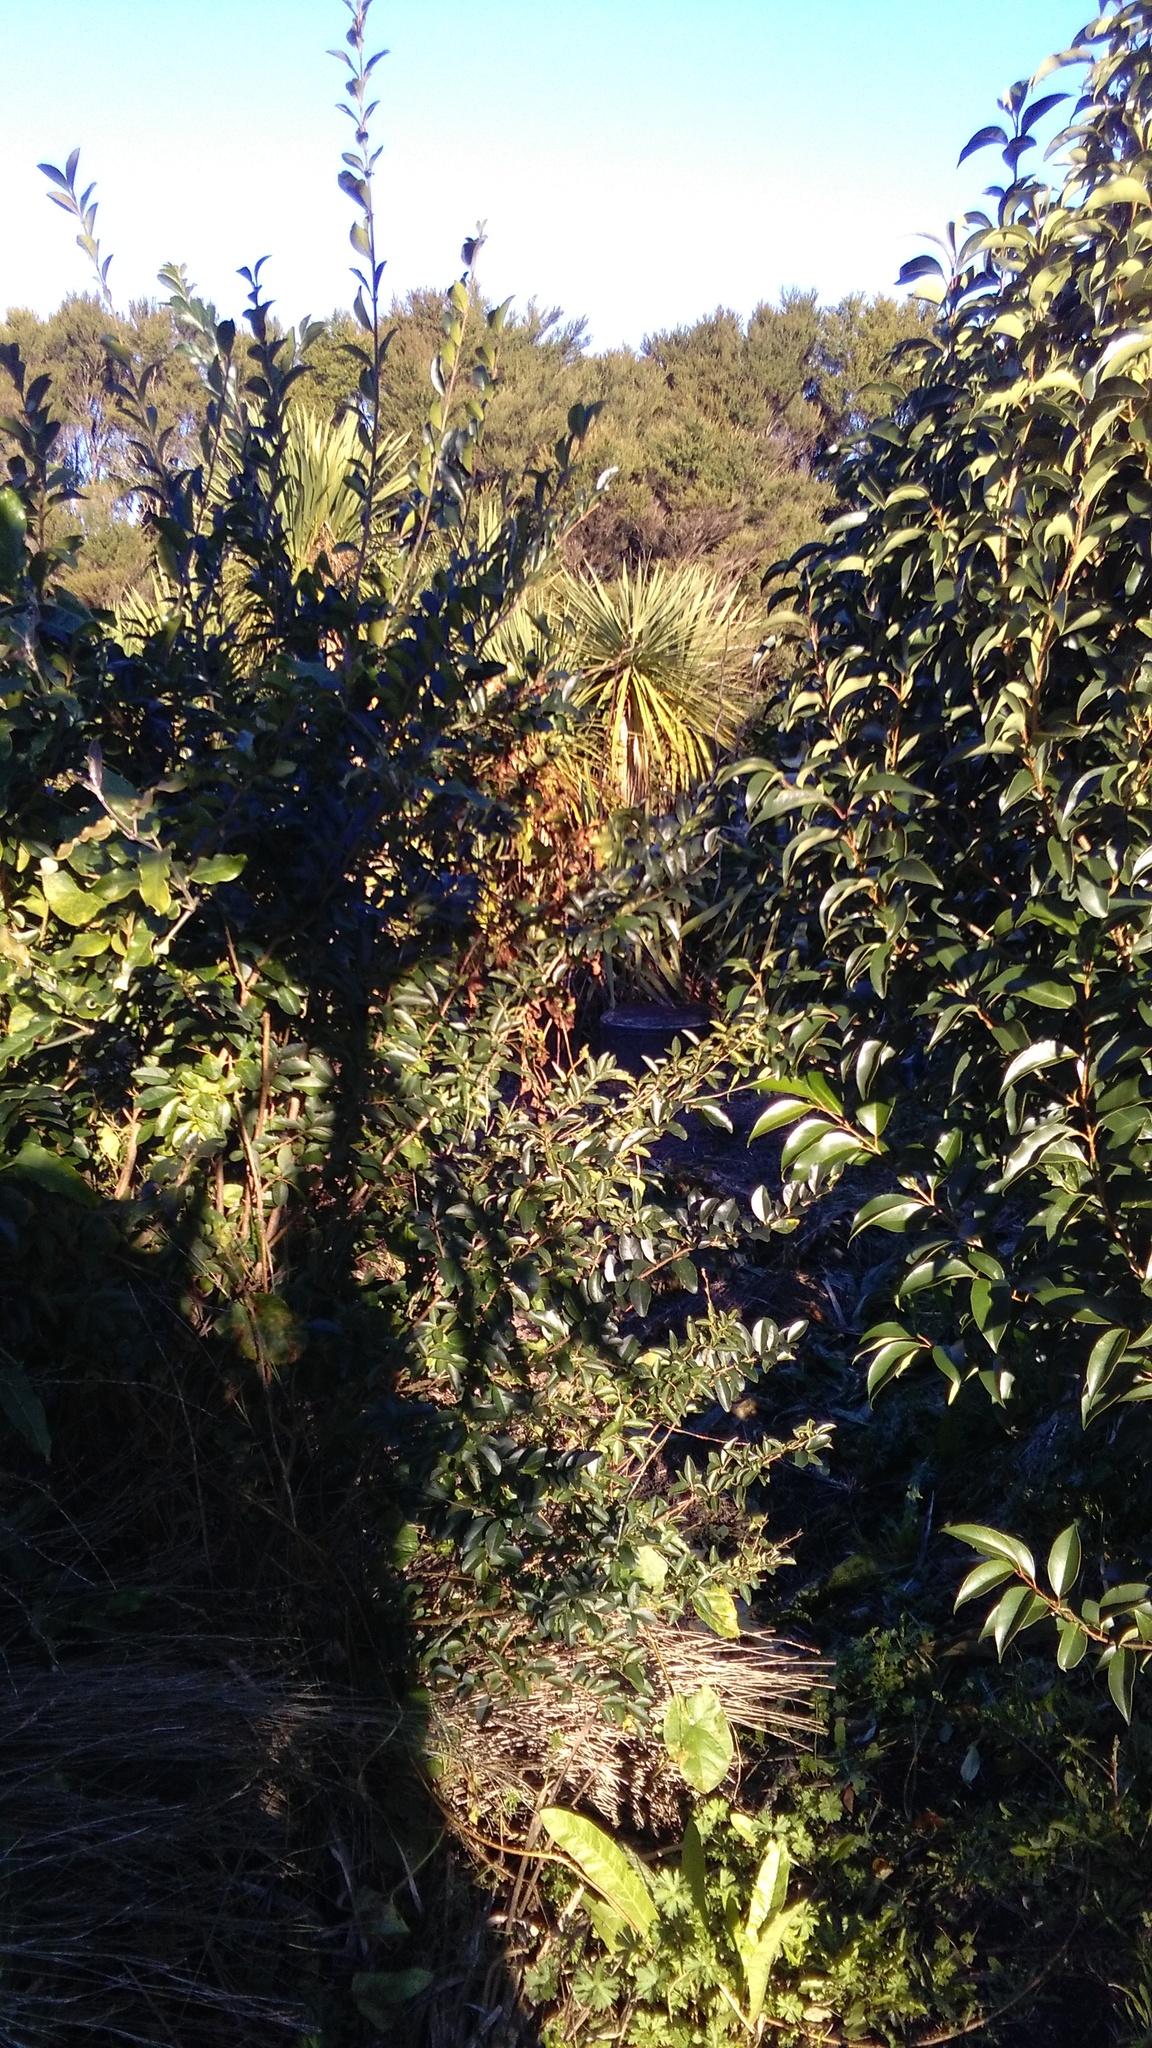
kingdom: Plantae
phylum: Tracheophyta
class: Magnoliopsida
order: Lamiales
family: Oleaceae
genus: Ligustrum
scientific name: Ligustrum sinense
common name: Chinese privet
